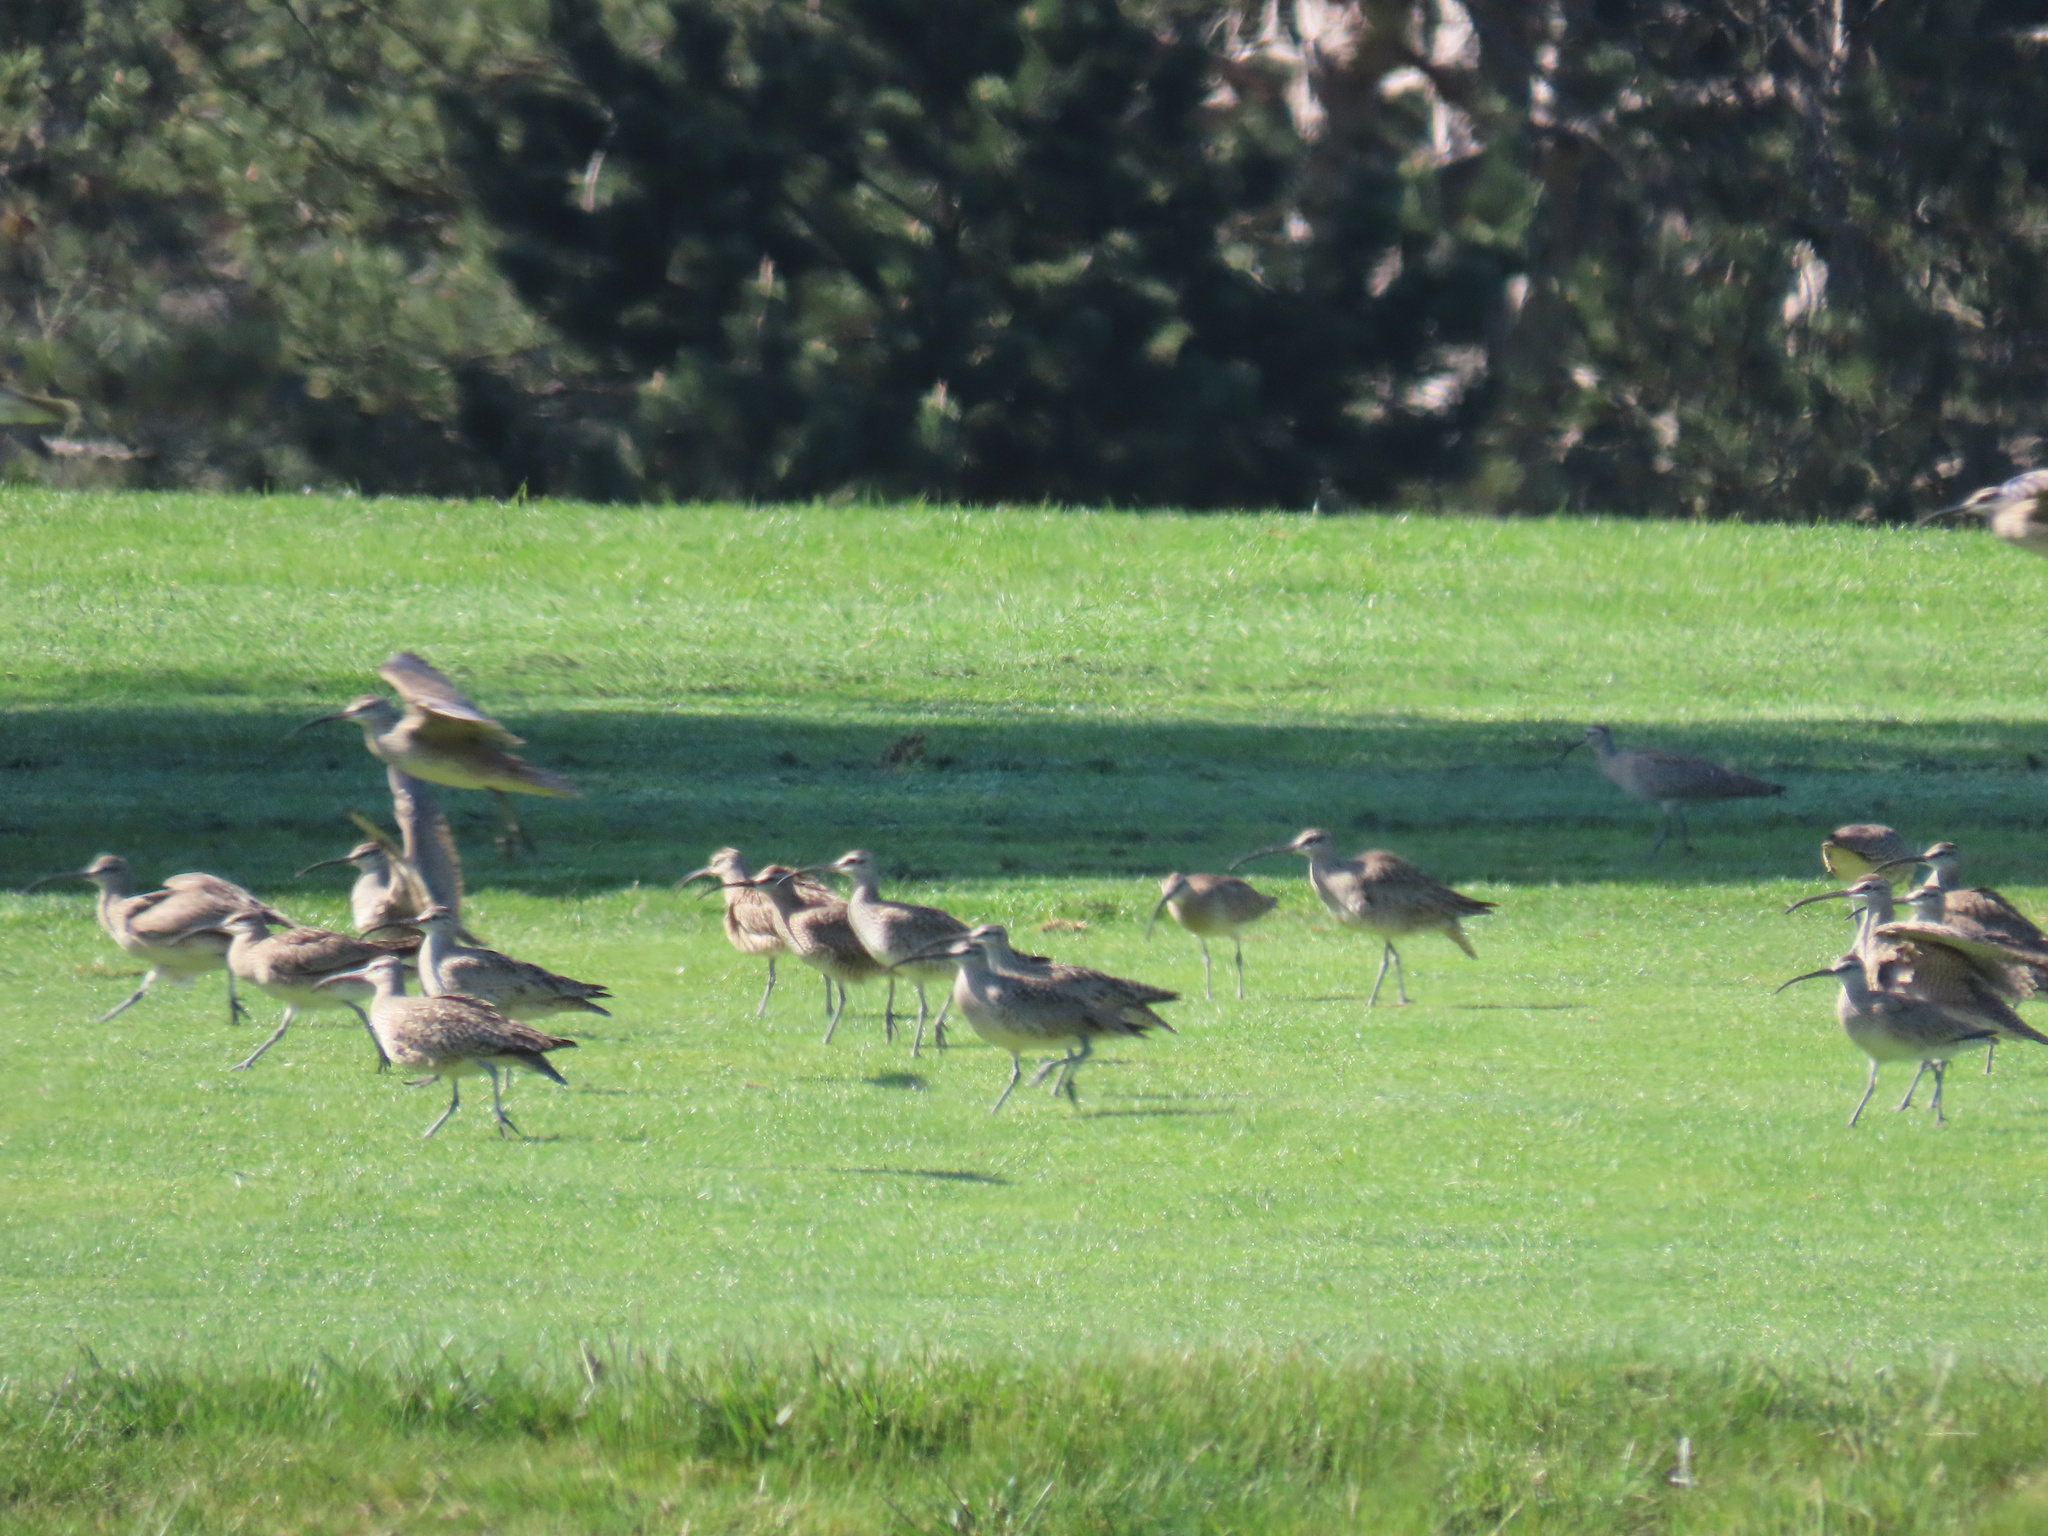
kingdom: Animalia
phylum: Chordata
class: Aves
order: Charadriiformes
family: Scolopacidae
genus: Numenius
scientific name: Numenius phaeopus
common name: Whimbrel
